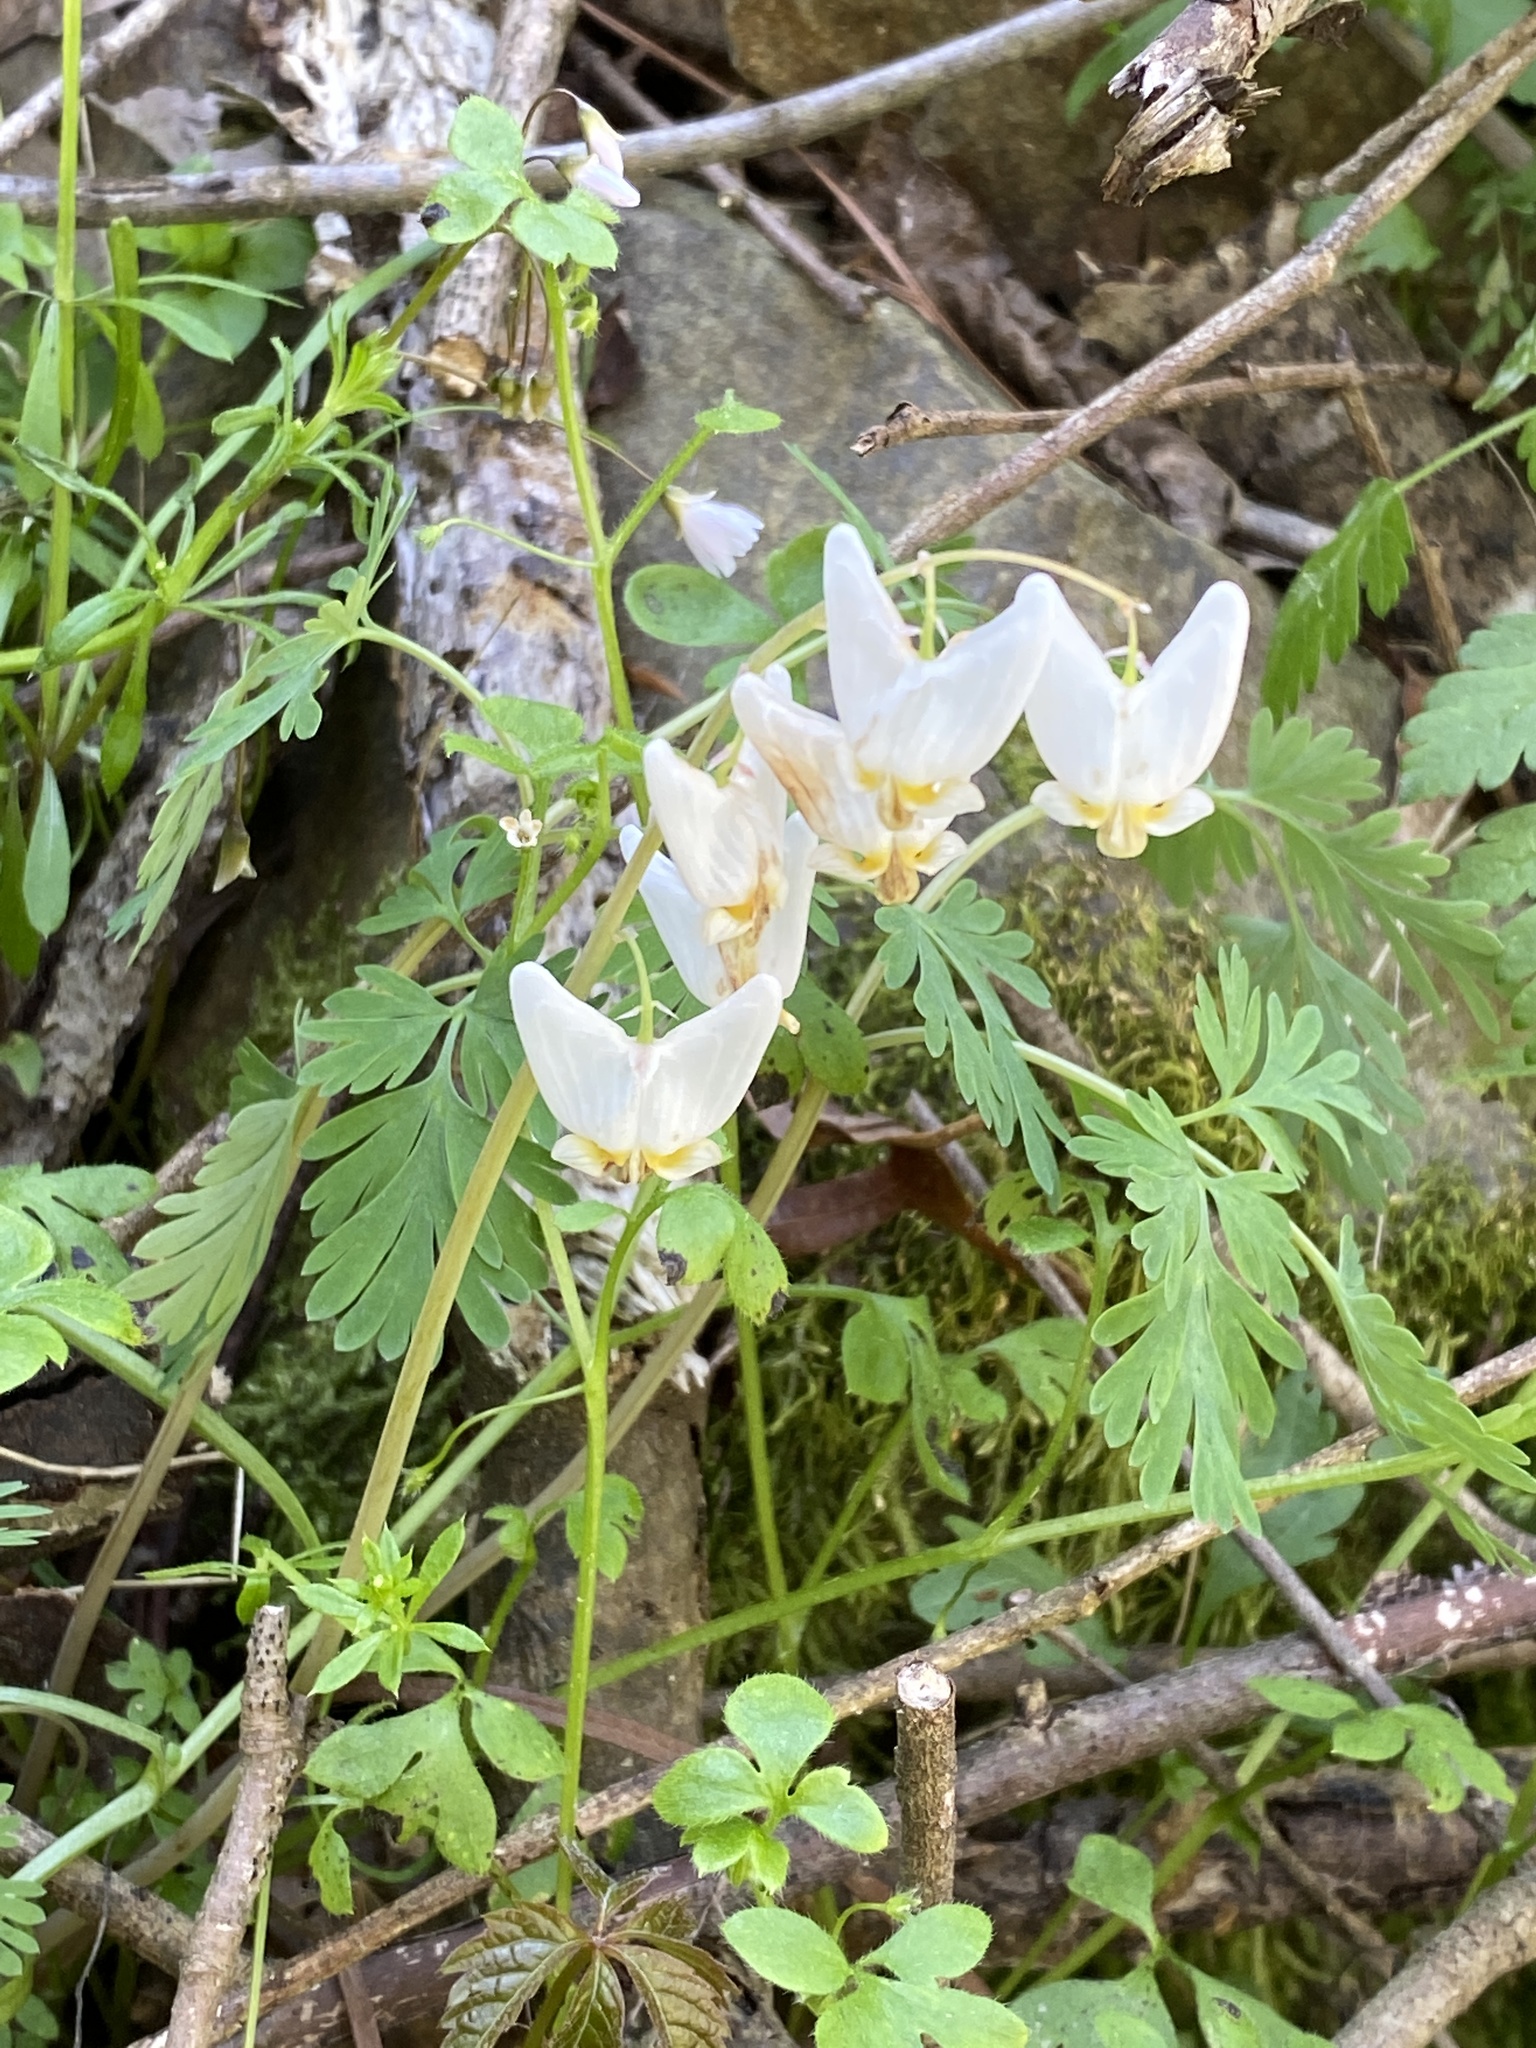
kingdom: Plantae
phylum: Tracheophyta
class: Magnoliopsida
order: Ranunculales
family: Papaveraceae
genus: Dicentra
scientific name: Dicentra cucullaria
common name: Dutchman's breeches
